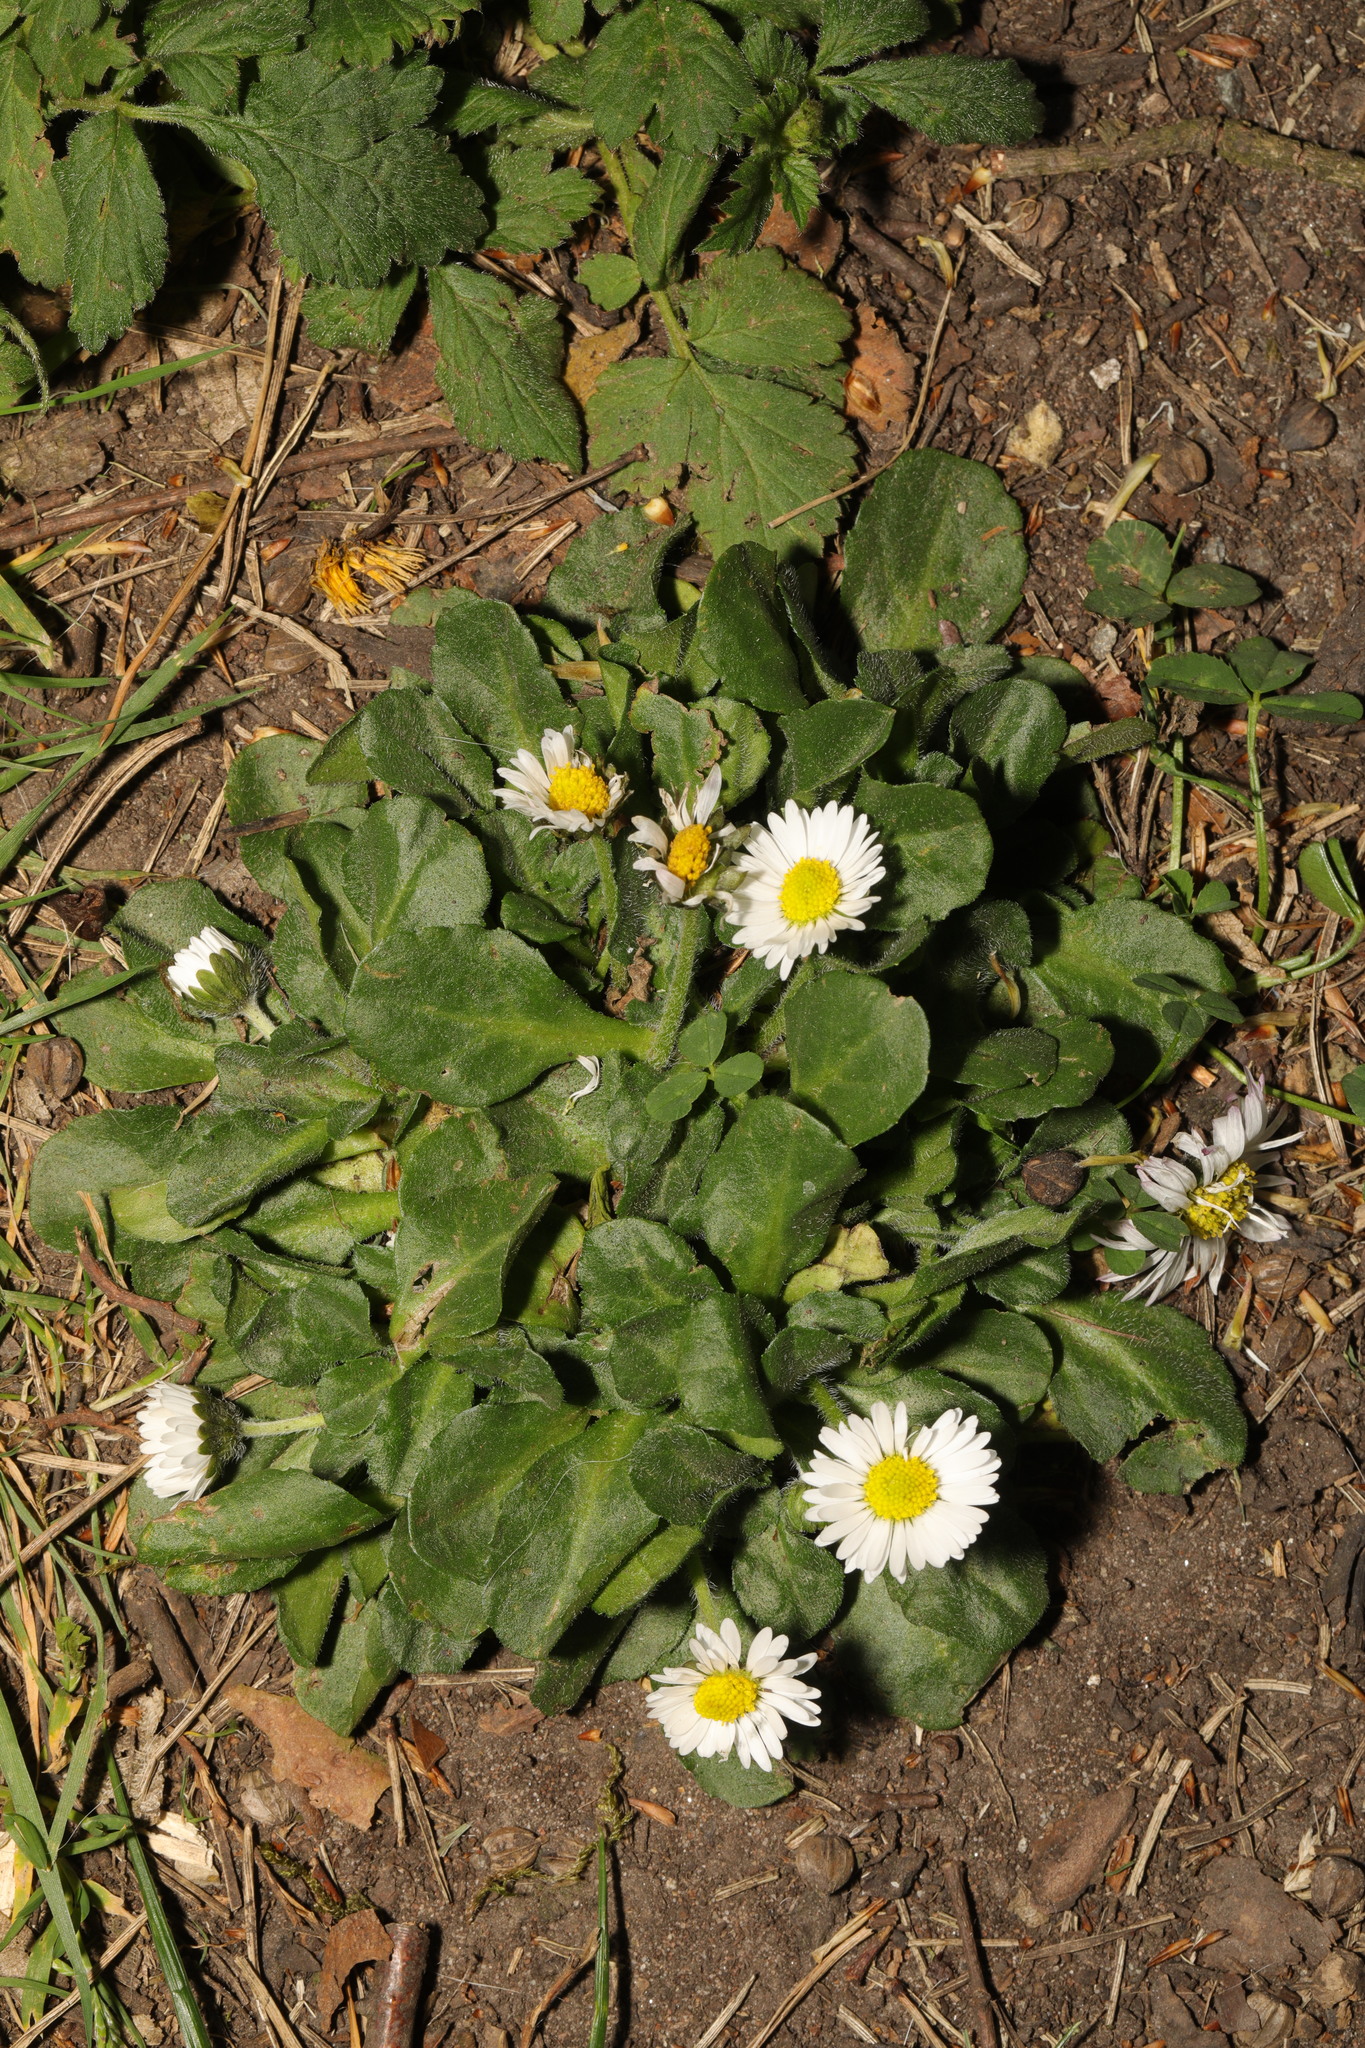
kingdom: Plantae
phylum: Tracheophyta
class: Magnoliopsida
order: Asterales
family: Asteraceae
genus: Bellis
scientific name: Bellis perennis
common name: Lawndaisy
